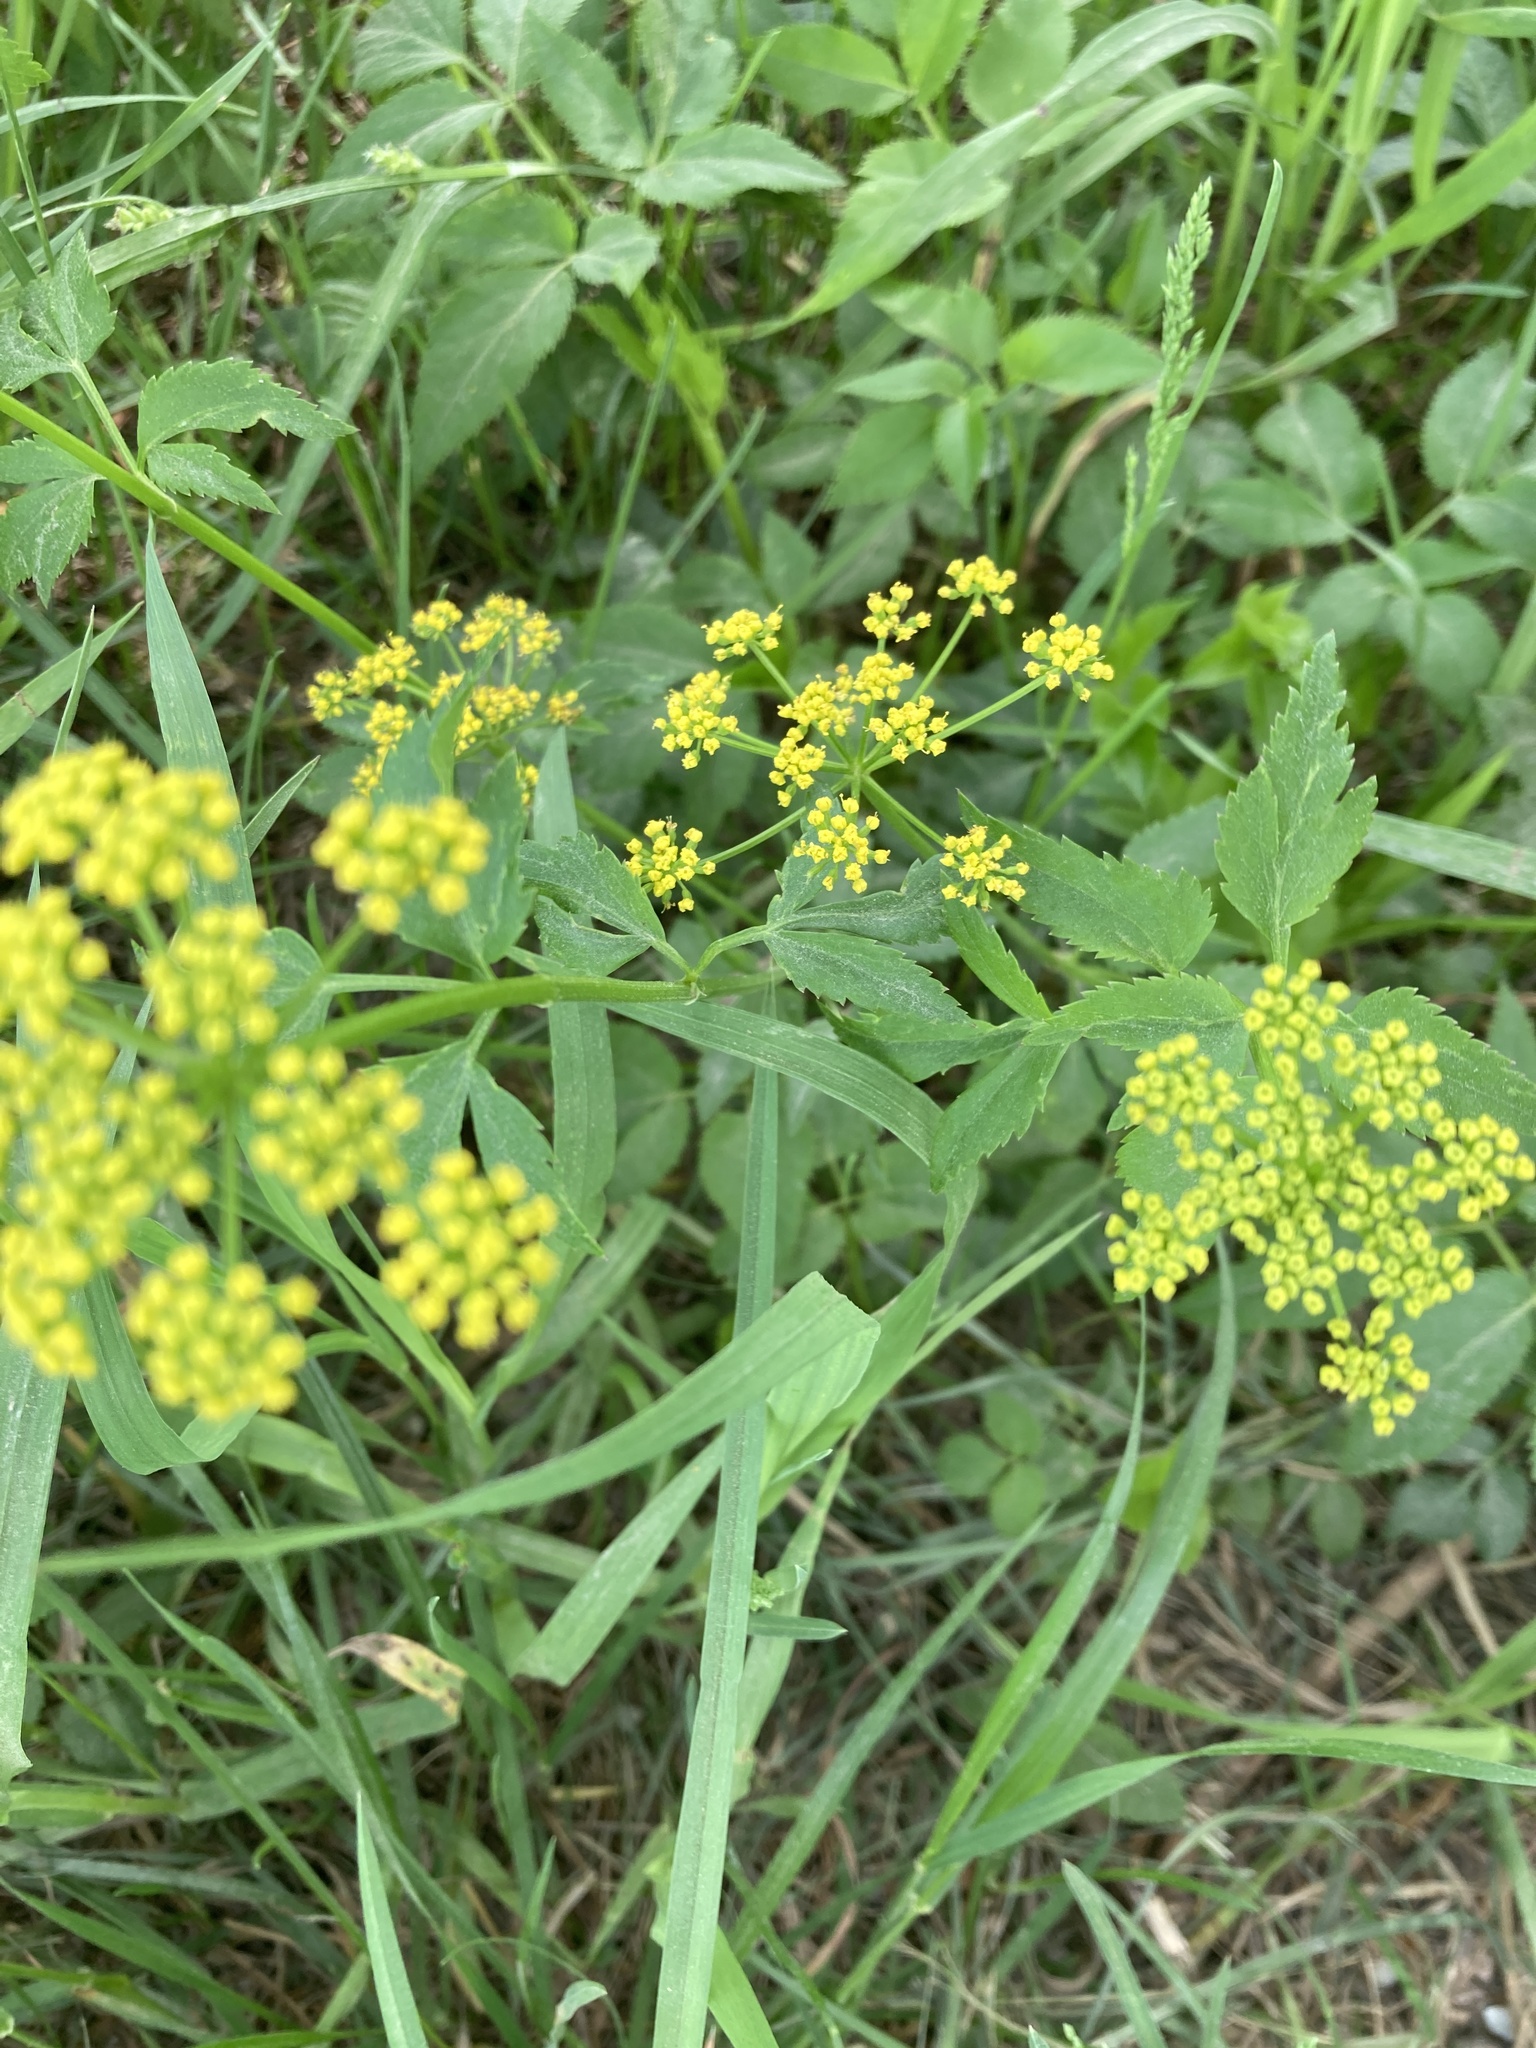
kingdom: Plantae
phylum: Tracheophyta
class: Magnoliopsida
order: Apiales
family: Apiaceae
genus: Zizia
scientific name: Zizia aurea
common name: Golden alexanders
